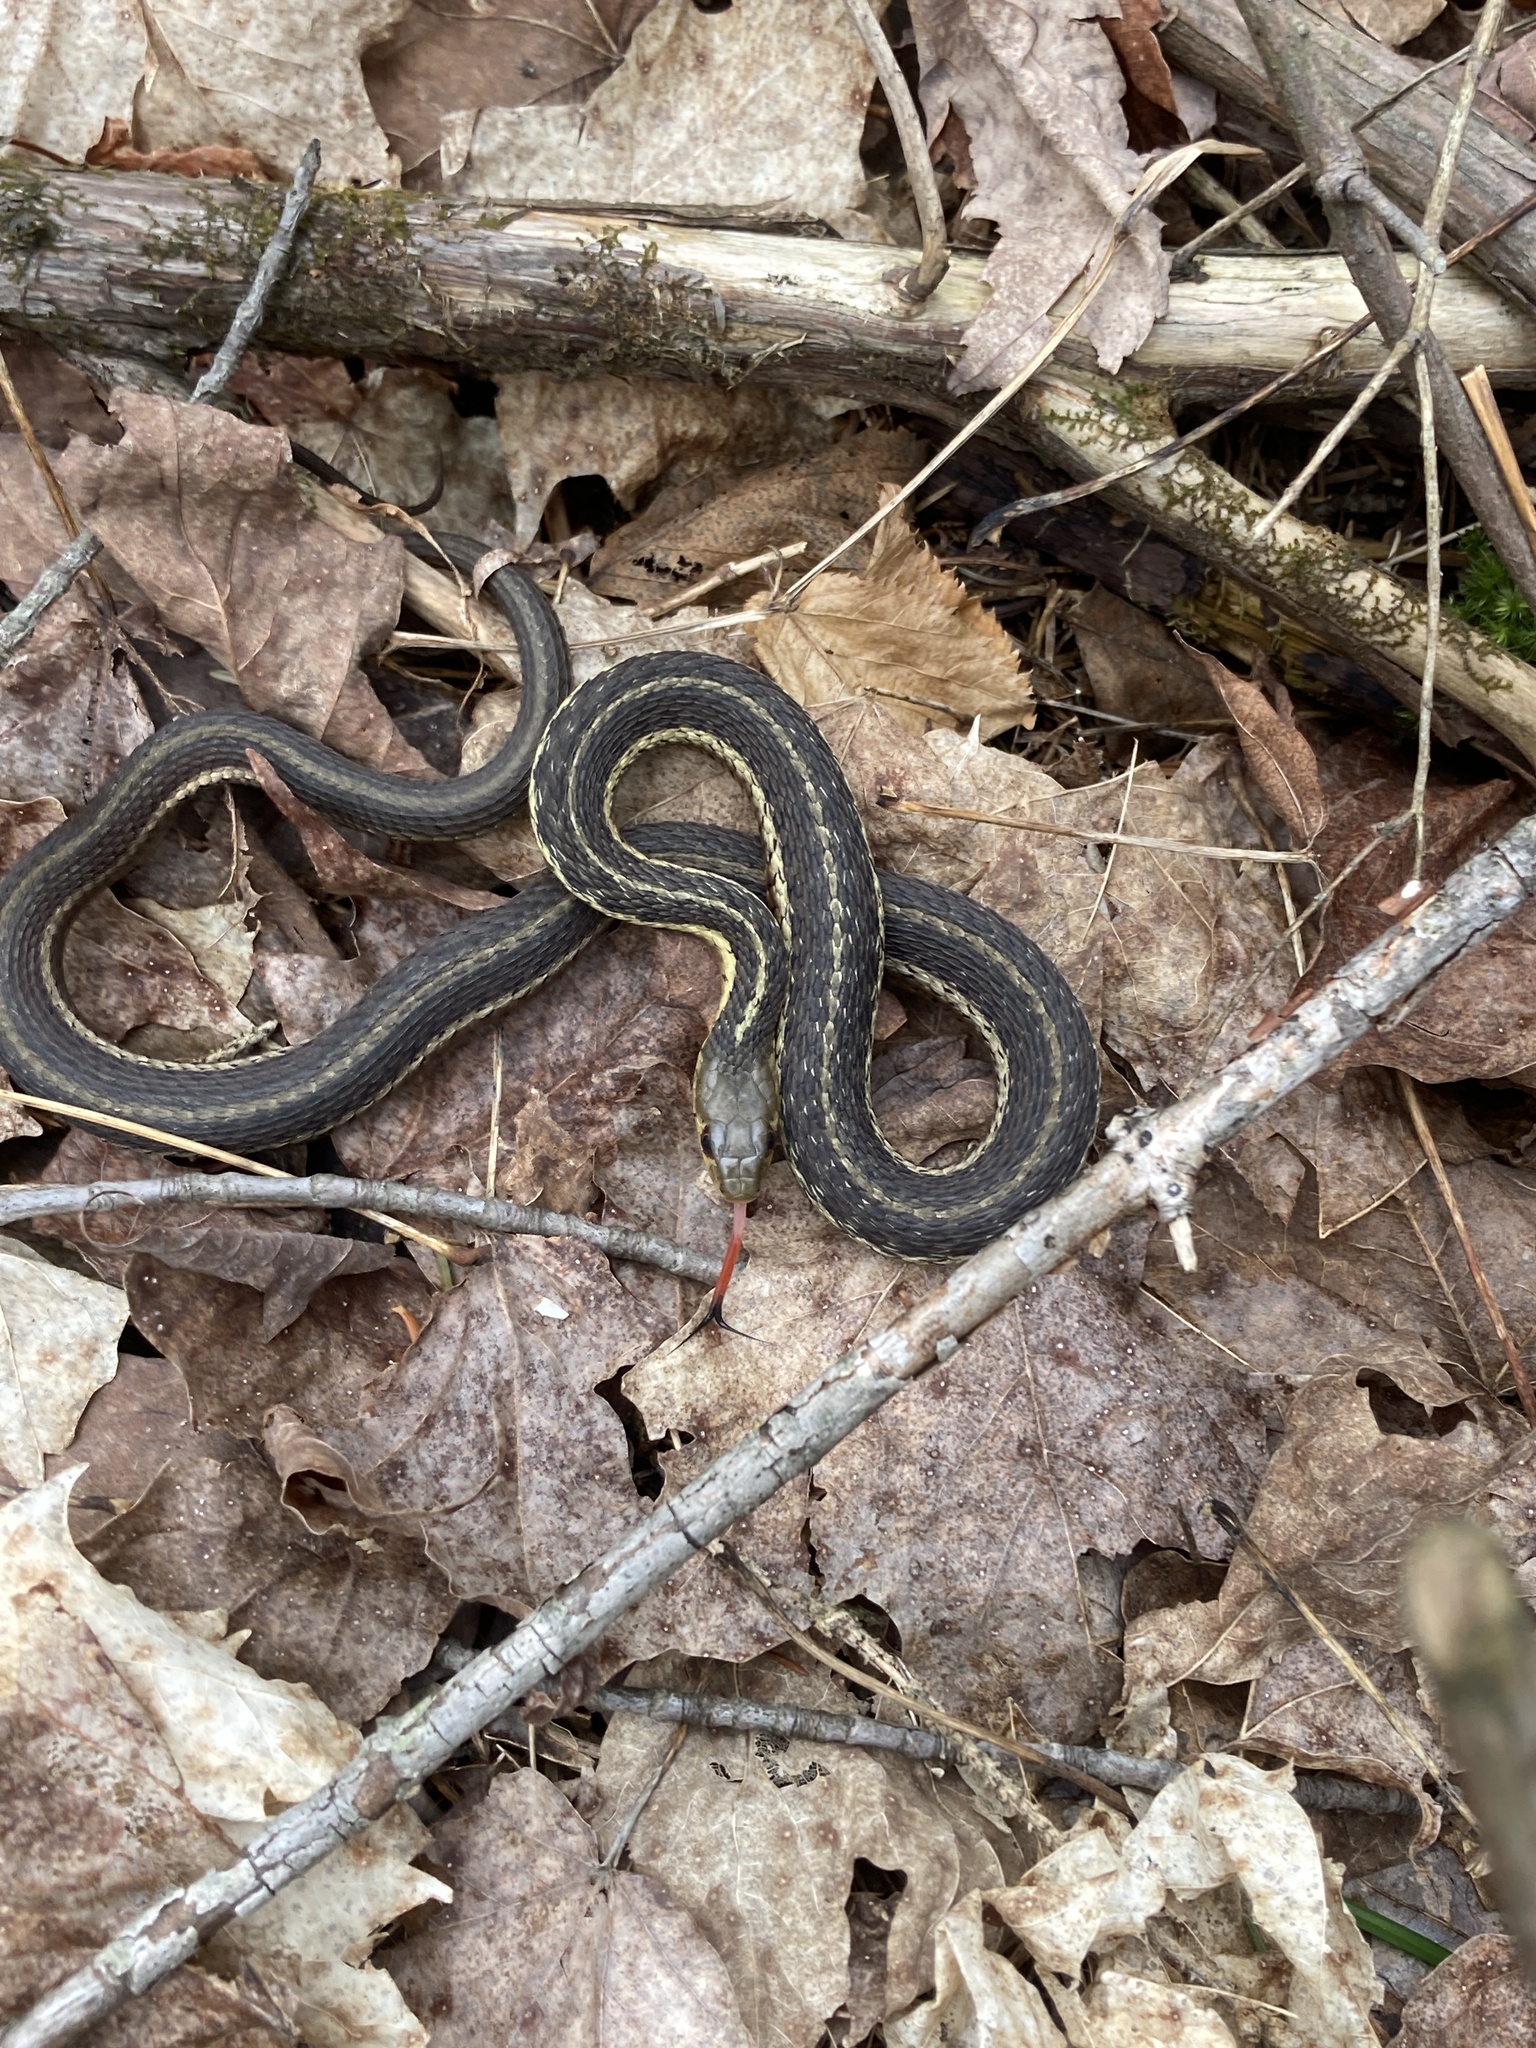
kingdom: Animalia
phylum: Chordata
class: Squamata
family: Colubridae
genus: Thamnophis
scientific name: Thamnophis sirtalis
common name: Common garter snake
